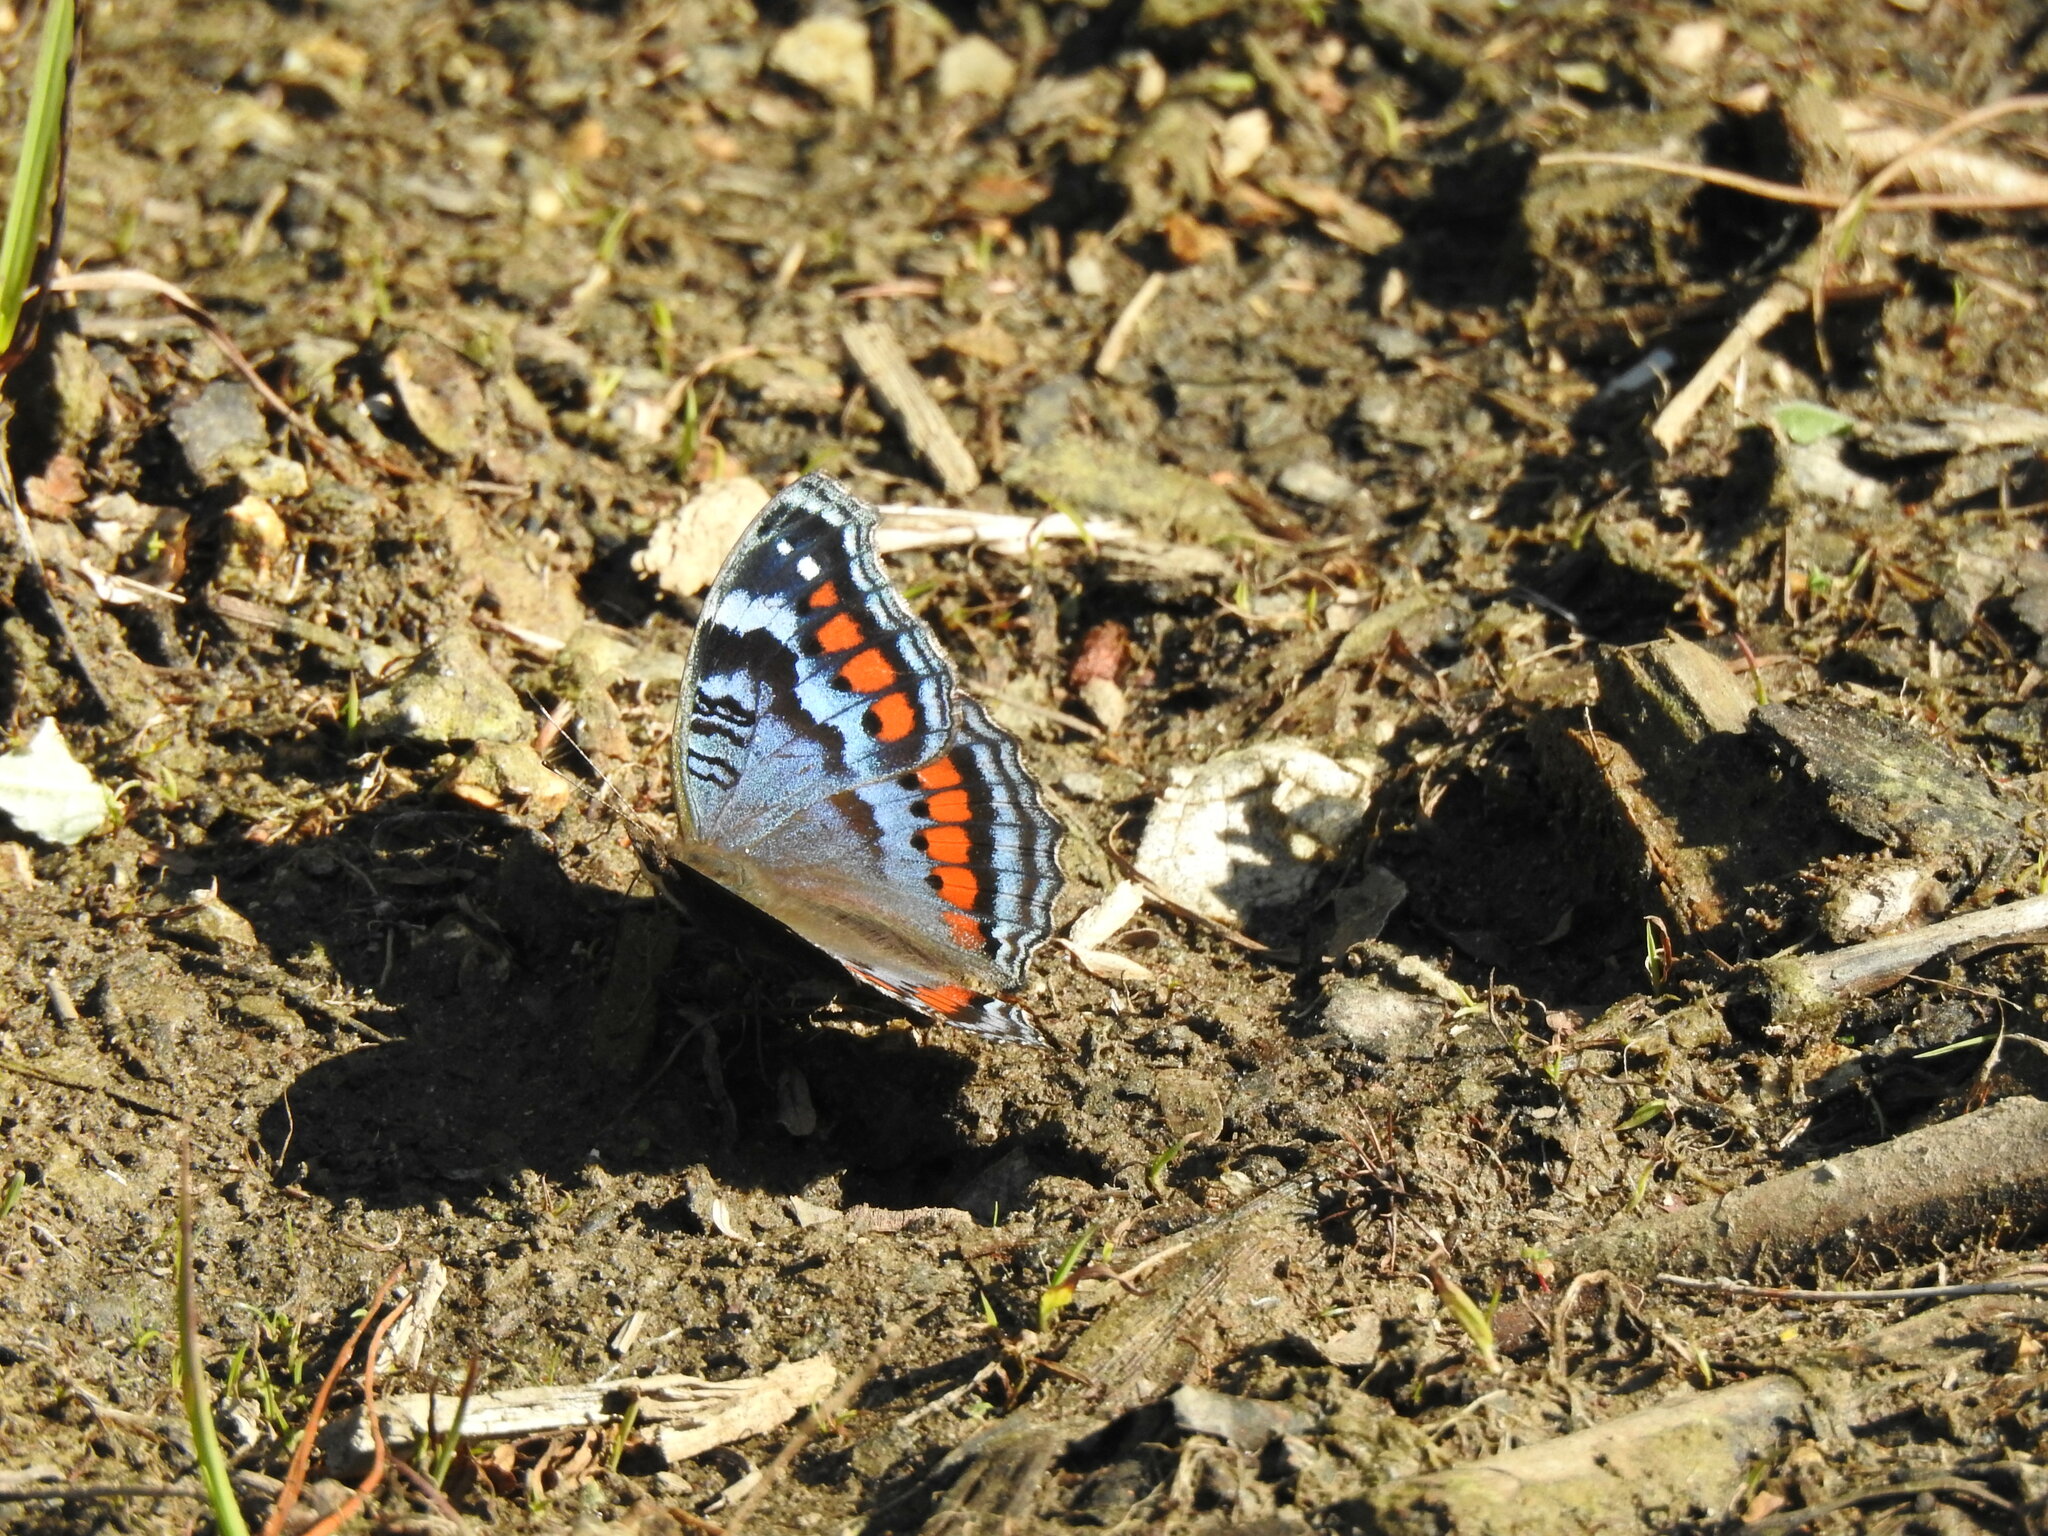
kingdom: Animalia
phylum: Arthropoda
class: Insecta
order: Lepidoptera
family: Nymphalidae
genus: Precis
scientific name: Precis octavia
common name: Gaudy commodore
